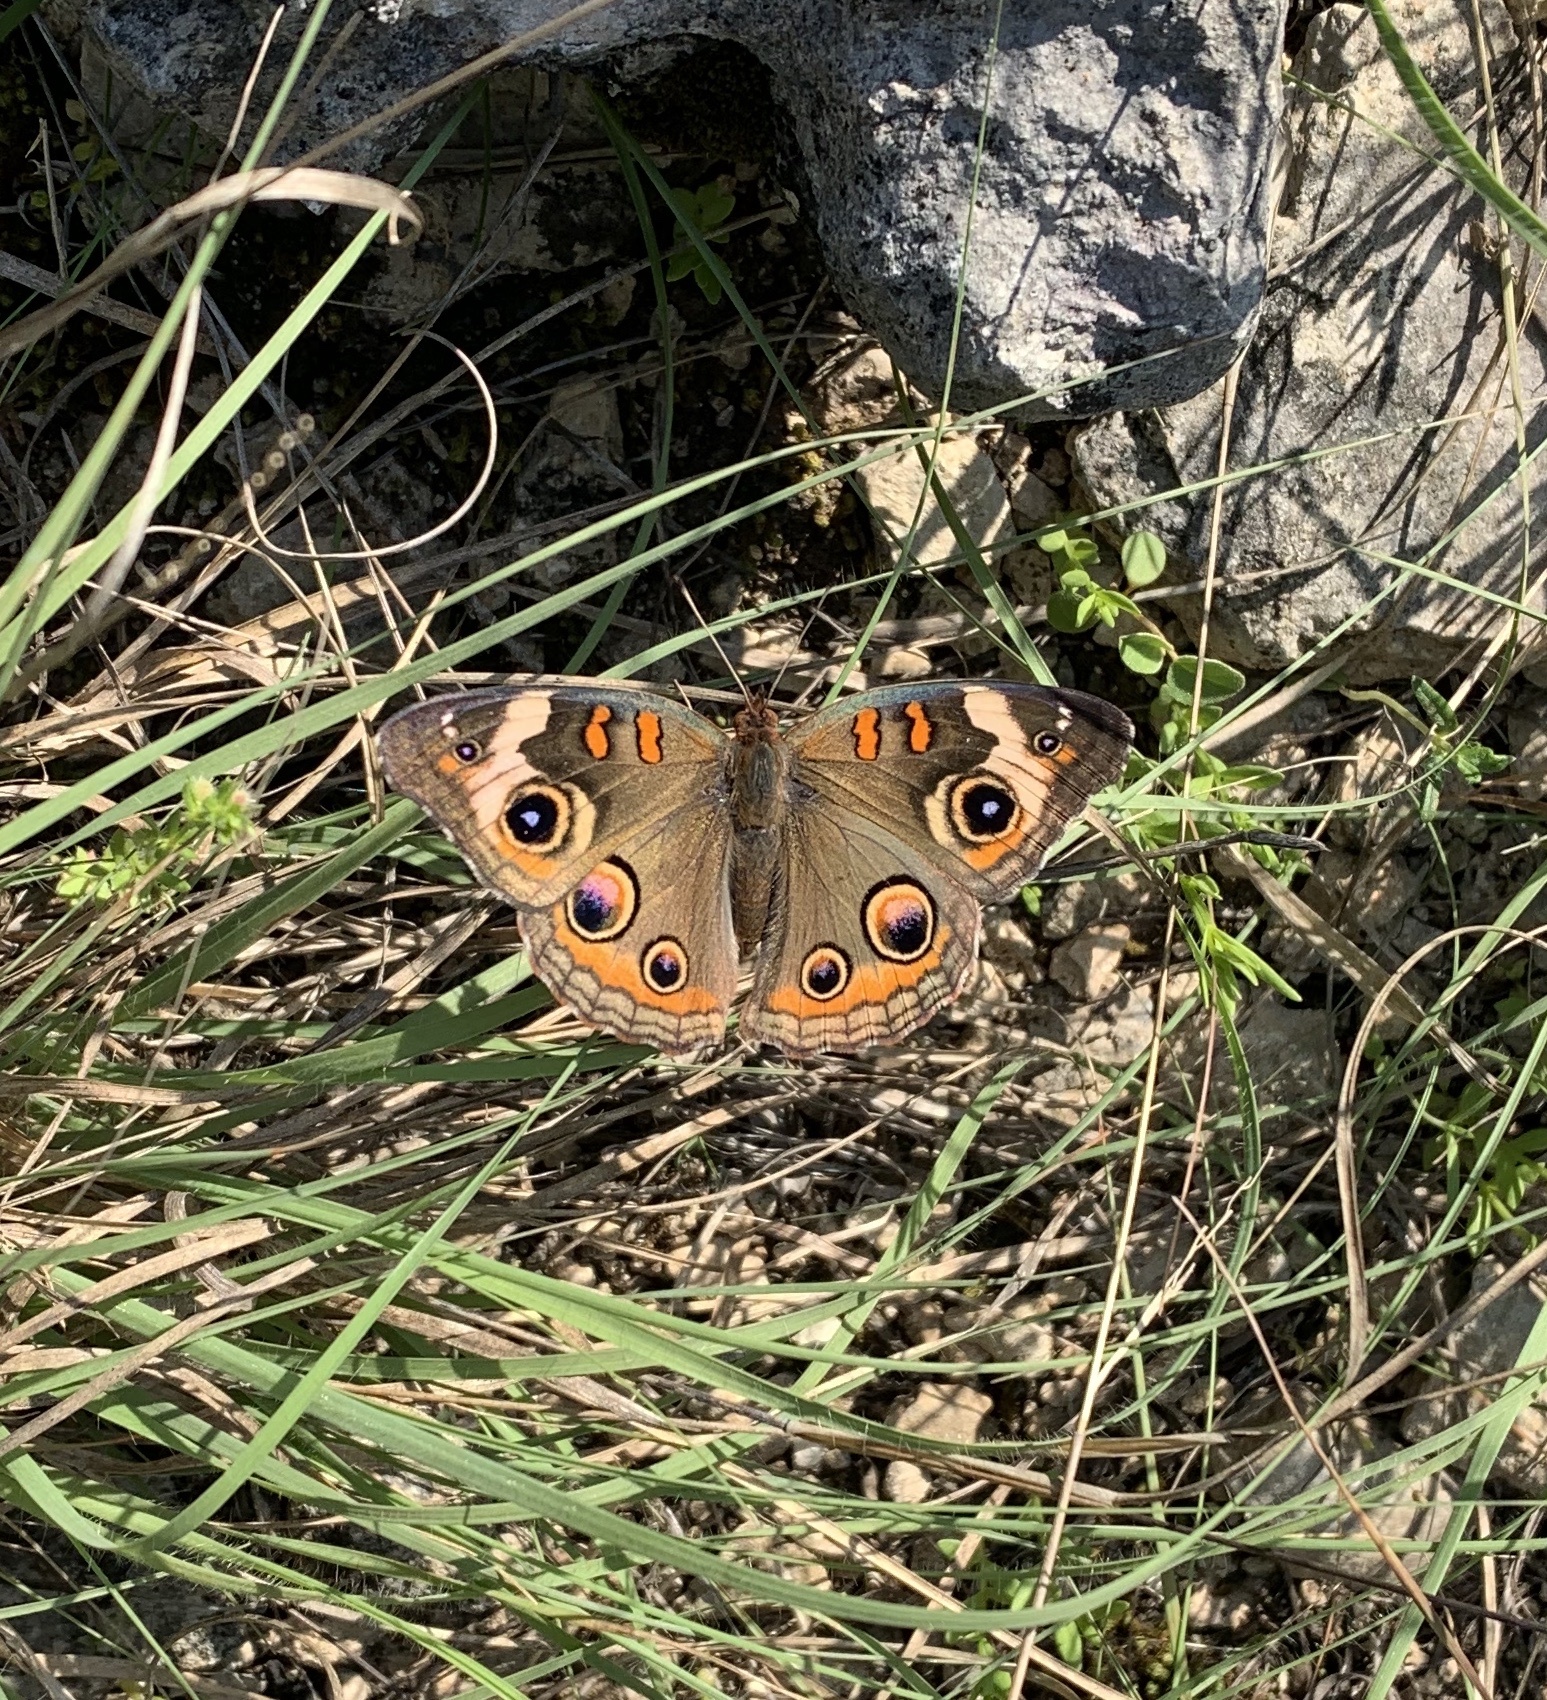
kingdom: Animalia
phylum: Arthropoda
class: Insecta
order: Lepidoptera
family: Nymphalidae
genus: Junonia
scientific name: Junonia coenia
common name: Common buckeye
